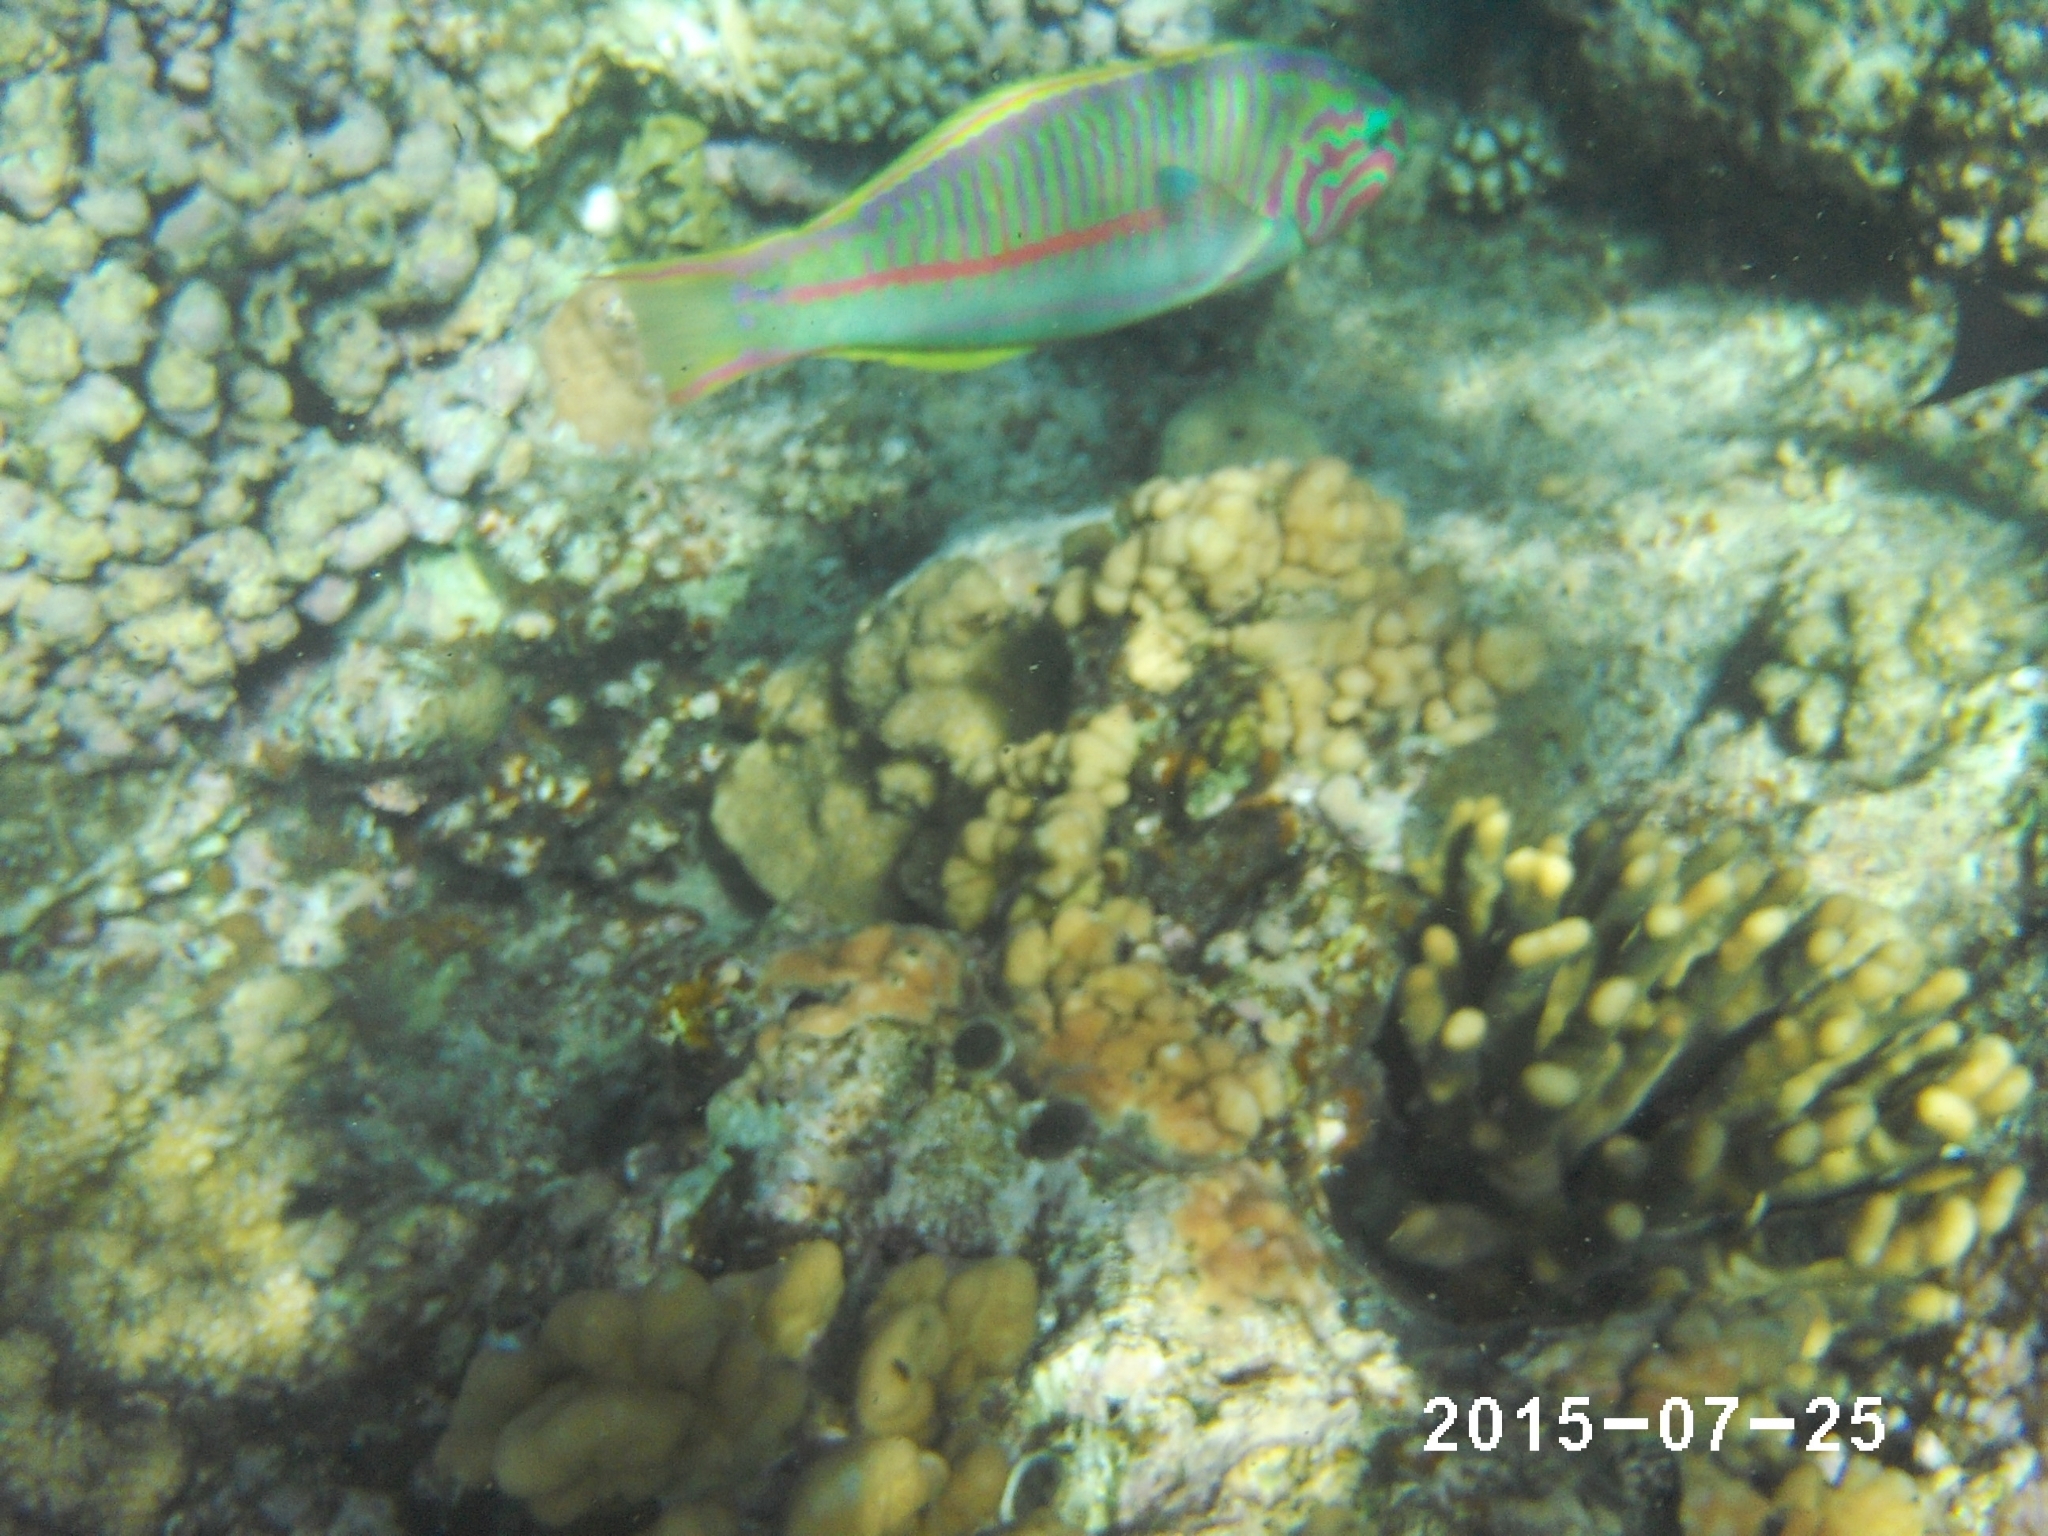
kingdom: Animalia
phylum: Chordata
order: Perciformes
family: Labridae
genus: Thalassoma
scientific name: Thalassoma rueppellii
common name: Klunzinger's wrasse
